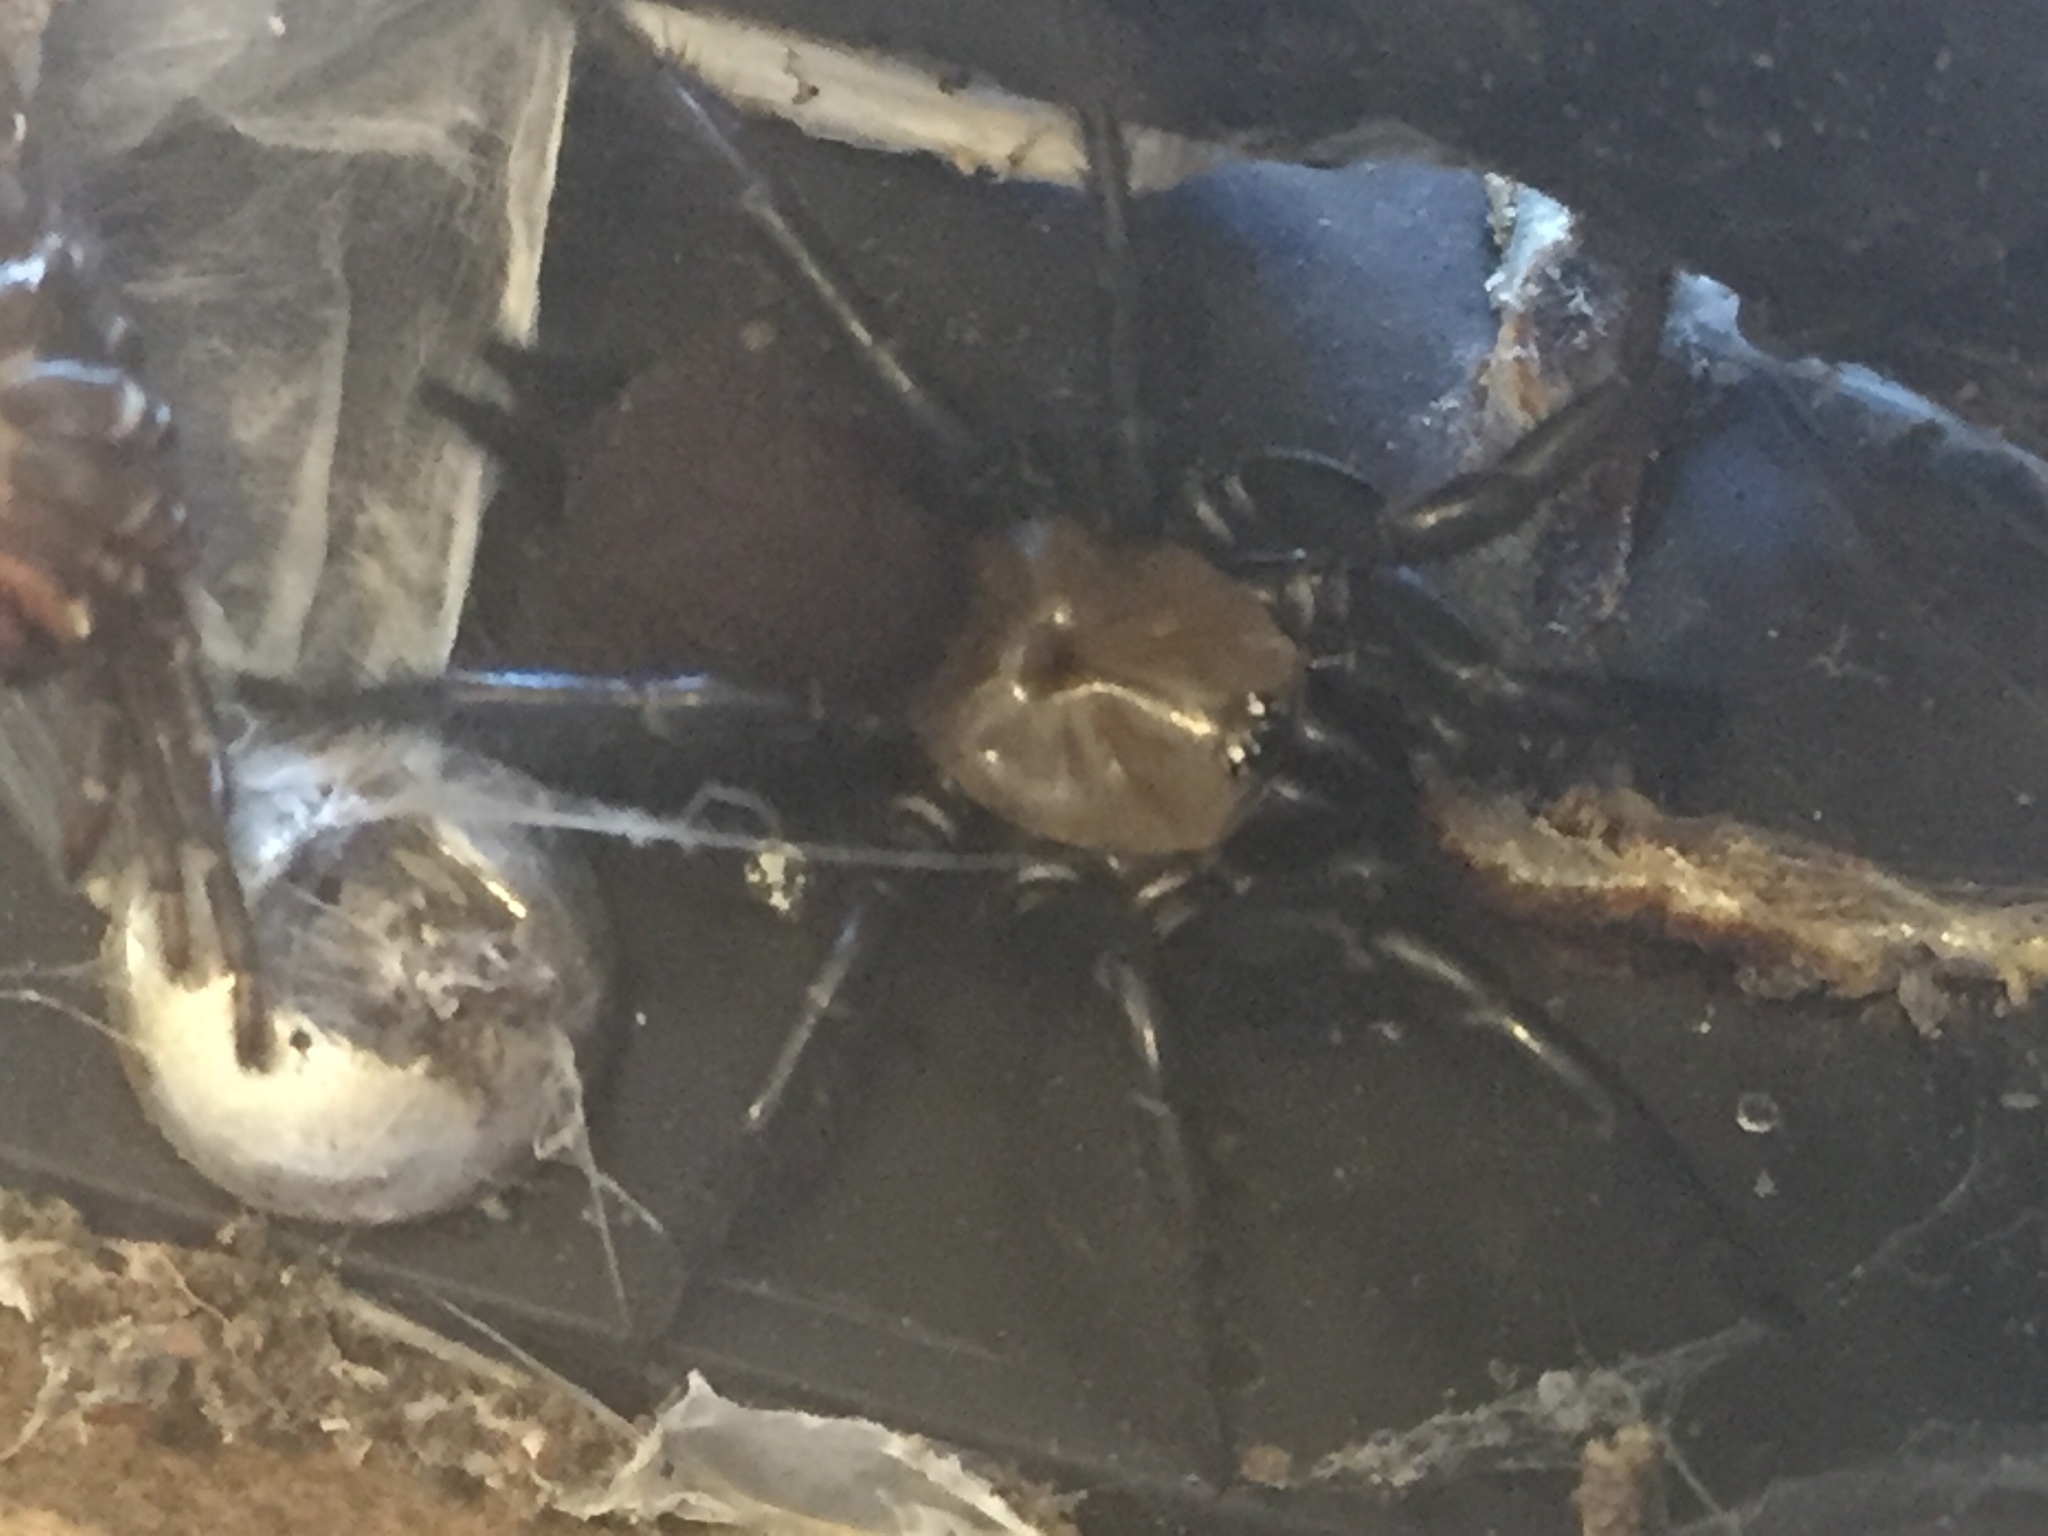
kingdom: Animalia
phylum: Arthropoda
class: Arachnida
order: Araneae
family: Porrhothelidae
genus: Porrhothele
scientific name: Porrhothele antipodiana
